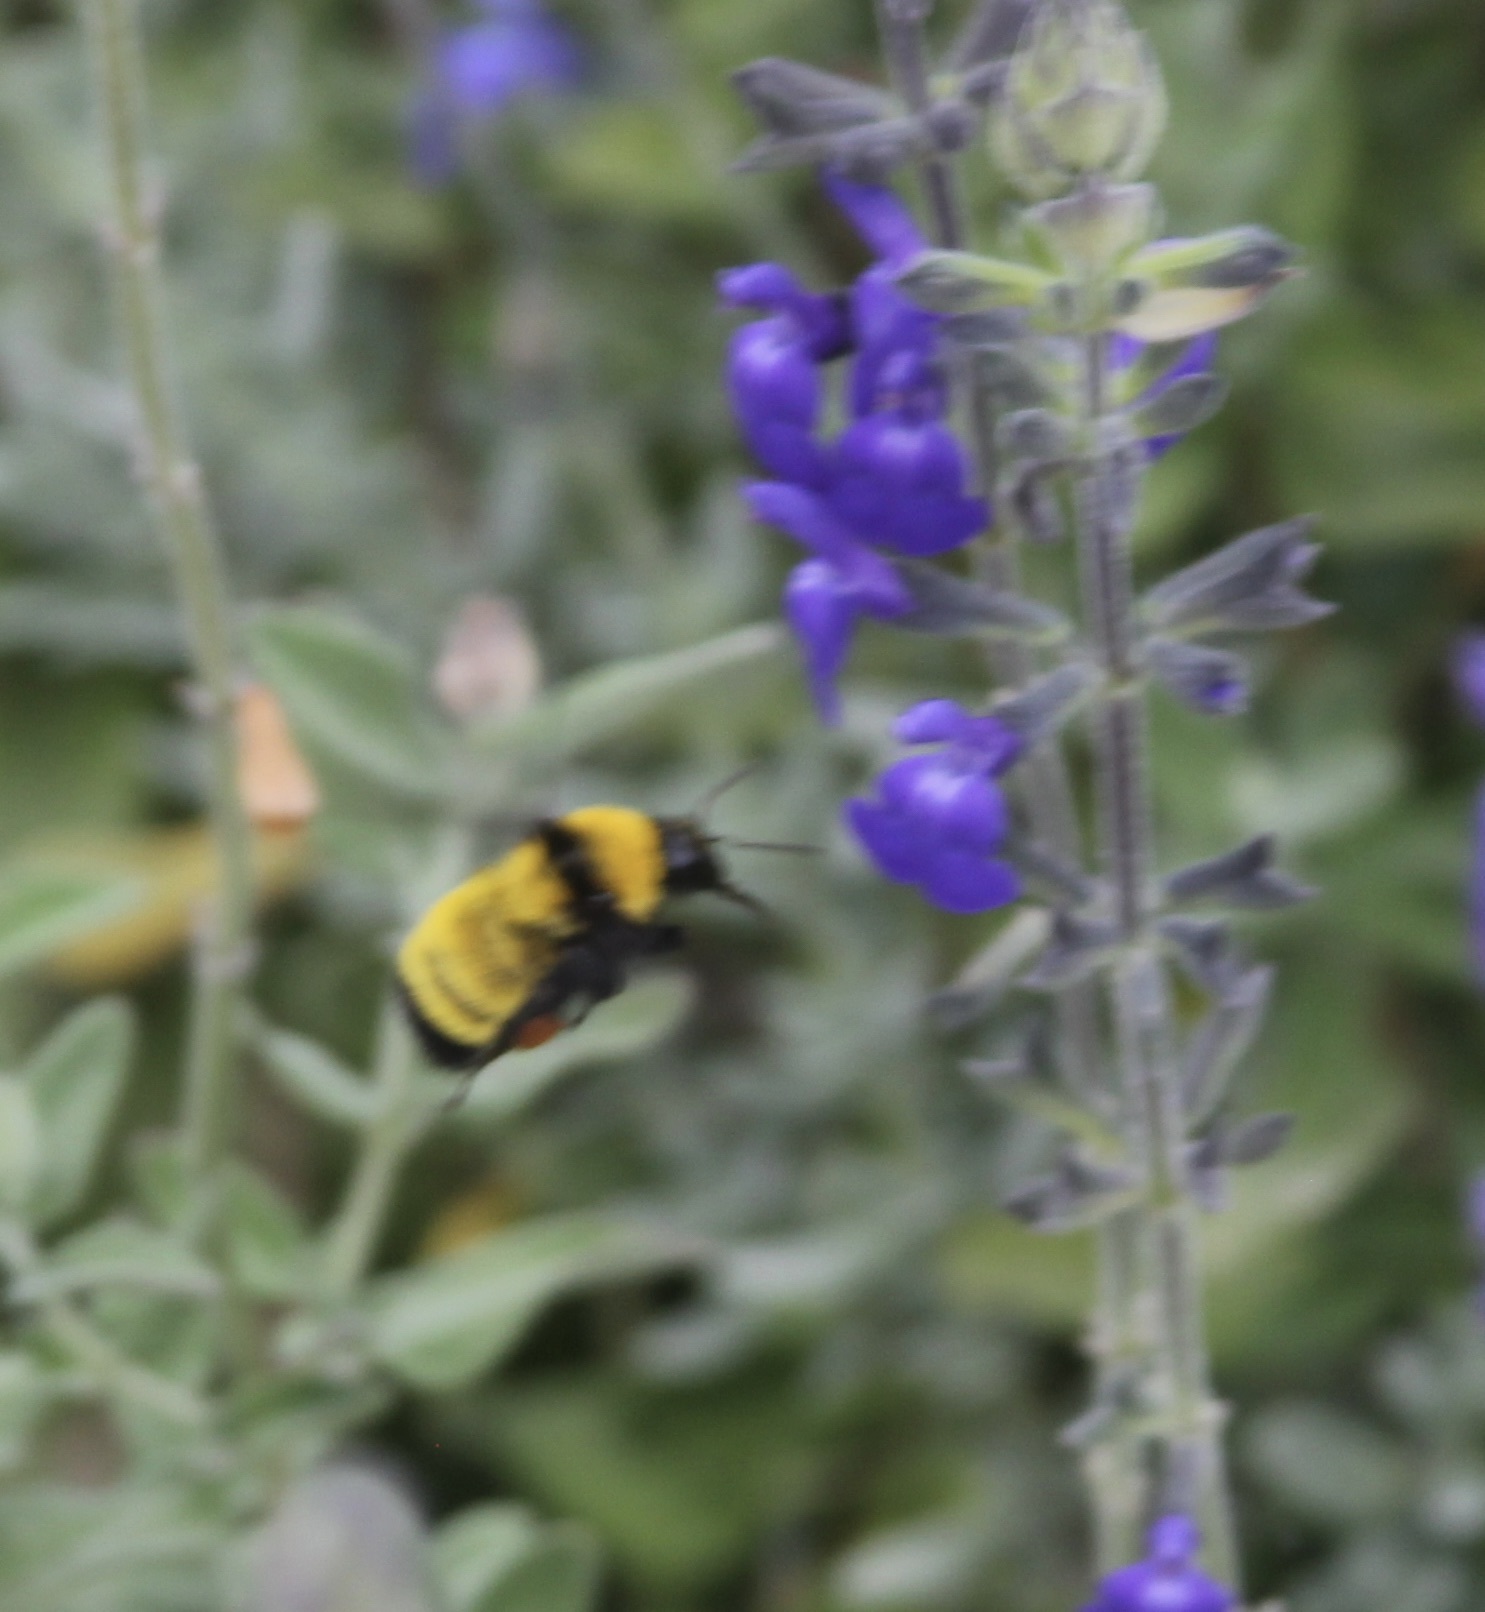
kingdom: Animalia
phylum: Arthropoda
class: Insecta
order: Hymenoptera
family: Apidae
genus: Bombus
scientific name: Bombus sonorus
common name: Sonoran bumble bee
